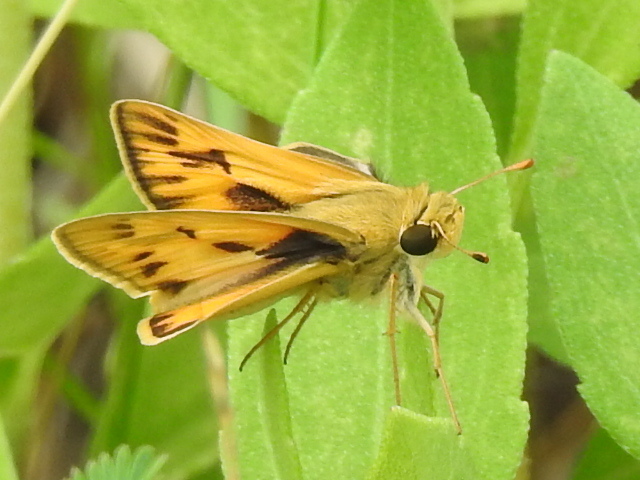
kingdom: Animalia
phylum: Arthropoda
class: Insecta
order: Lepidoptera
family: Hesperiidae
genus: Hylephila
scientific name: Hylephila phyleus
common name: Fiery skipper
